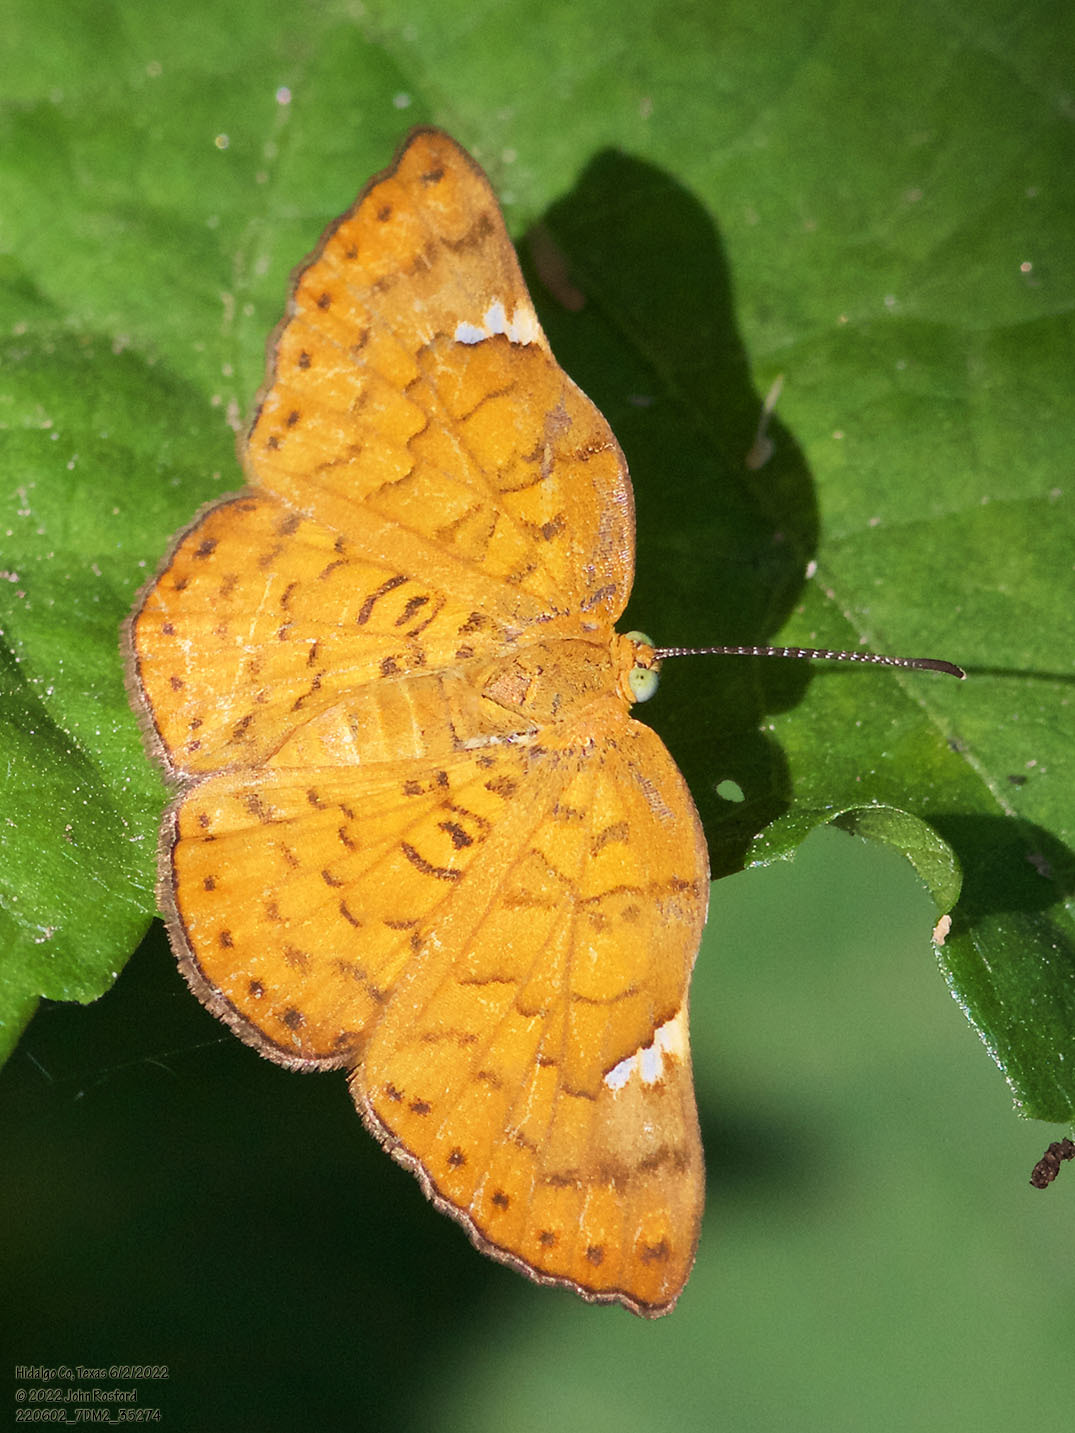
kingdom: Animalia
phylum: Arthropoda
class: Insecta
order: Lepidoptera
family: Riodinidae
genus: Curvie
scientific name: Curvie emesia
